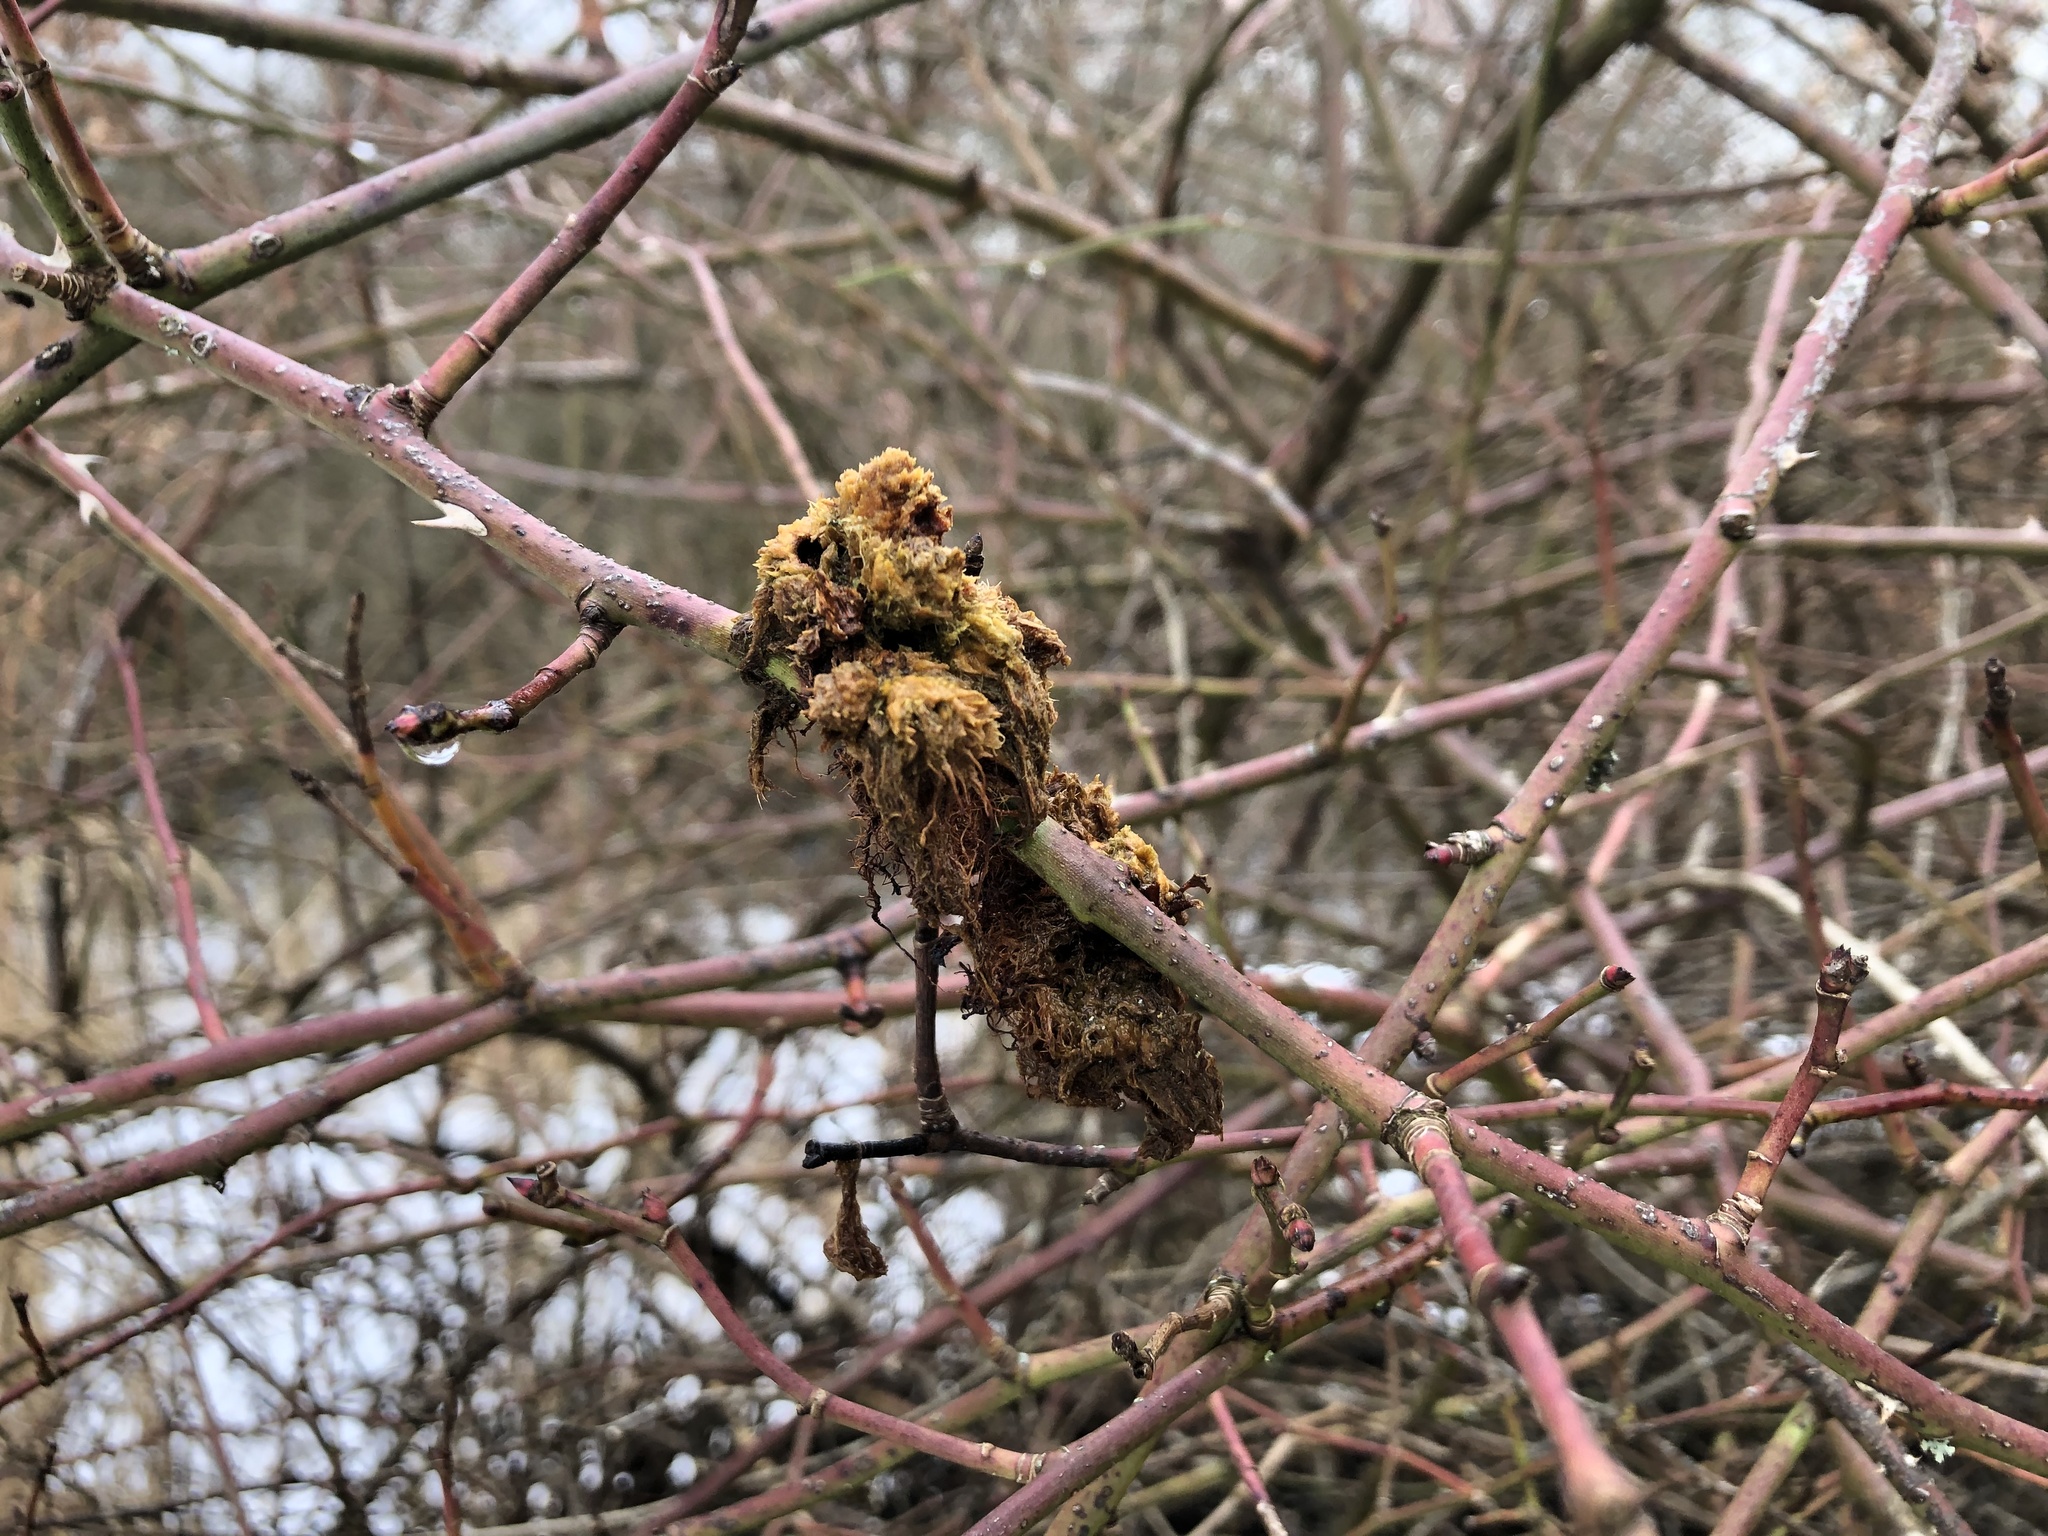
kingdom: Animalia
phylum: Arthropoda
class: Insecta
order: Hymenoptera
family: Cynipidae
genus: Diplolepis
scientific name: Diplolepis rosae
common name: Bedeguar gall
